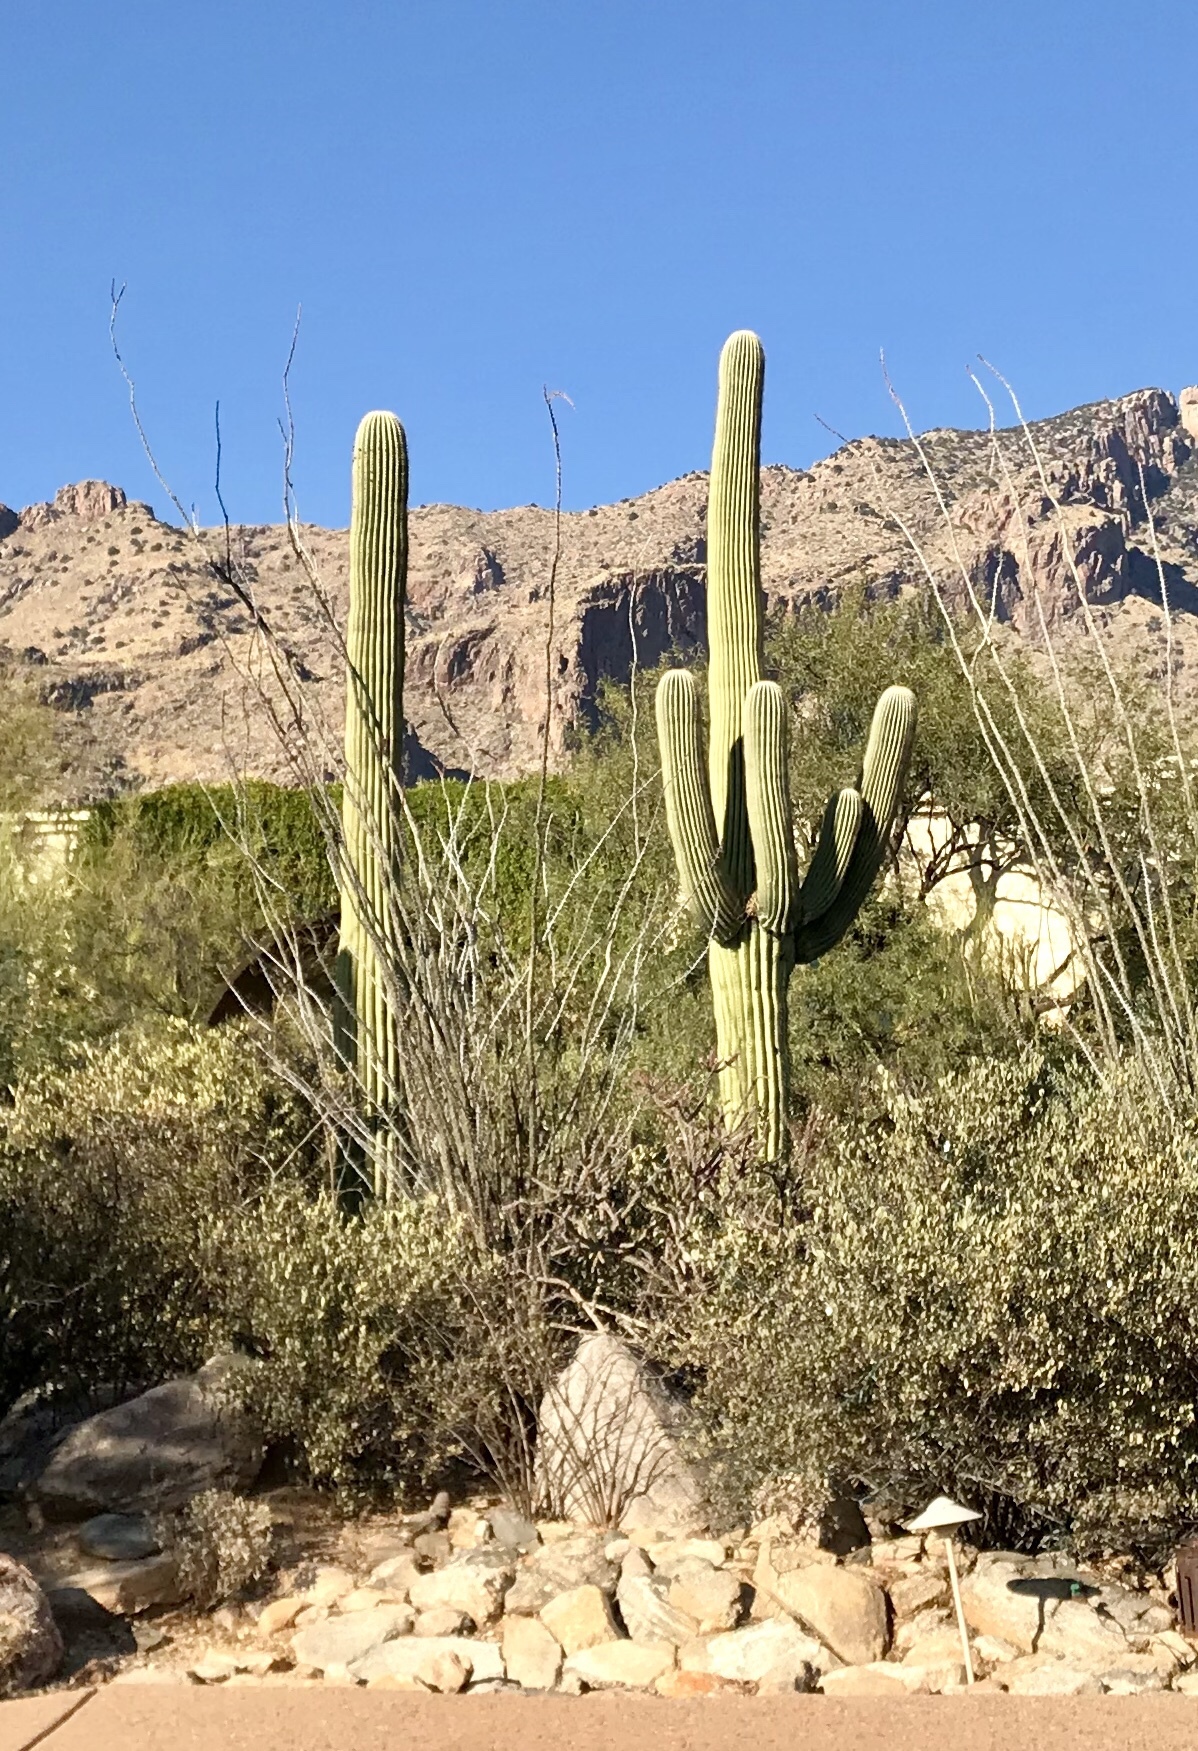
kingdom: Plantae
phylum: Tracheophyta
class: Magnoliopsida
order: Caryophyllales
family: Cactaceae
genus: Carnegiea
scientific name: Carnegiea gigantea
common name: Saguaro
